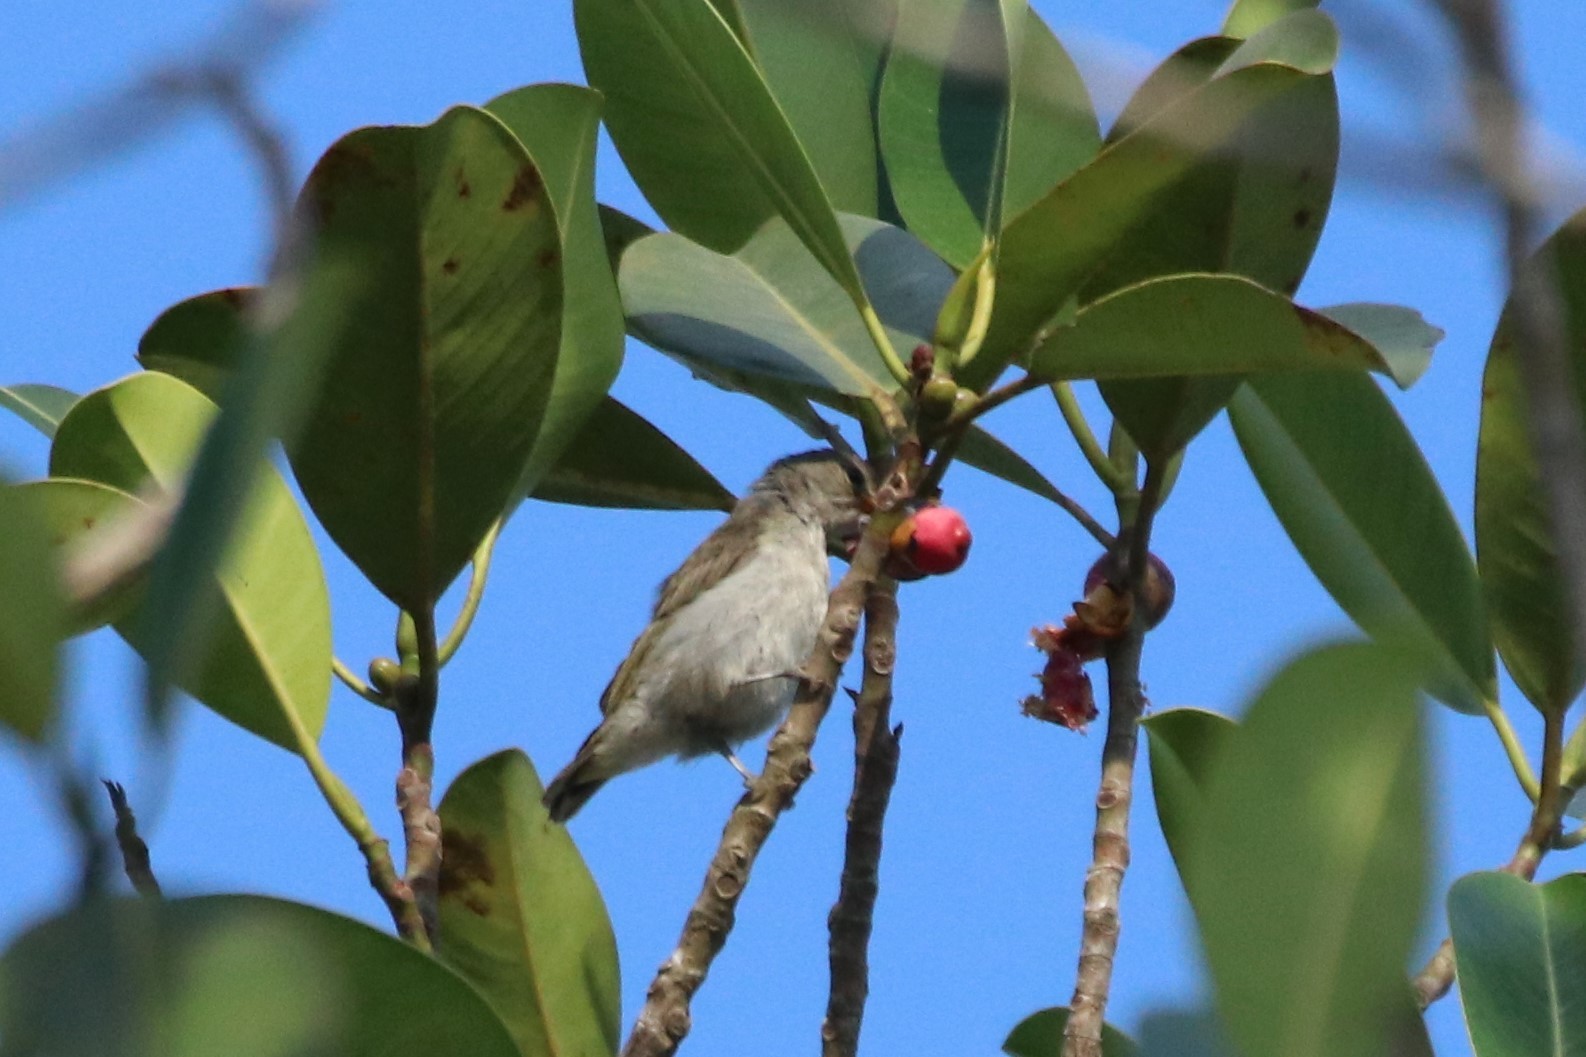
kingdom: Animalia
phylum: Chordata
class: Aves
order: Passeriformes
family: Dicaeidae
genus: Dicaeum
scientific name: Dicaeum agile
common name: Thick-billed flowerpecker
